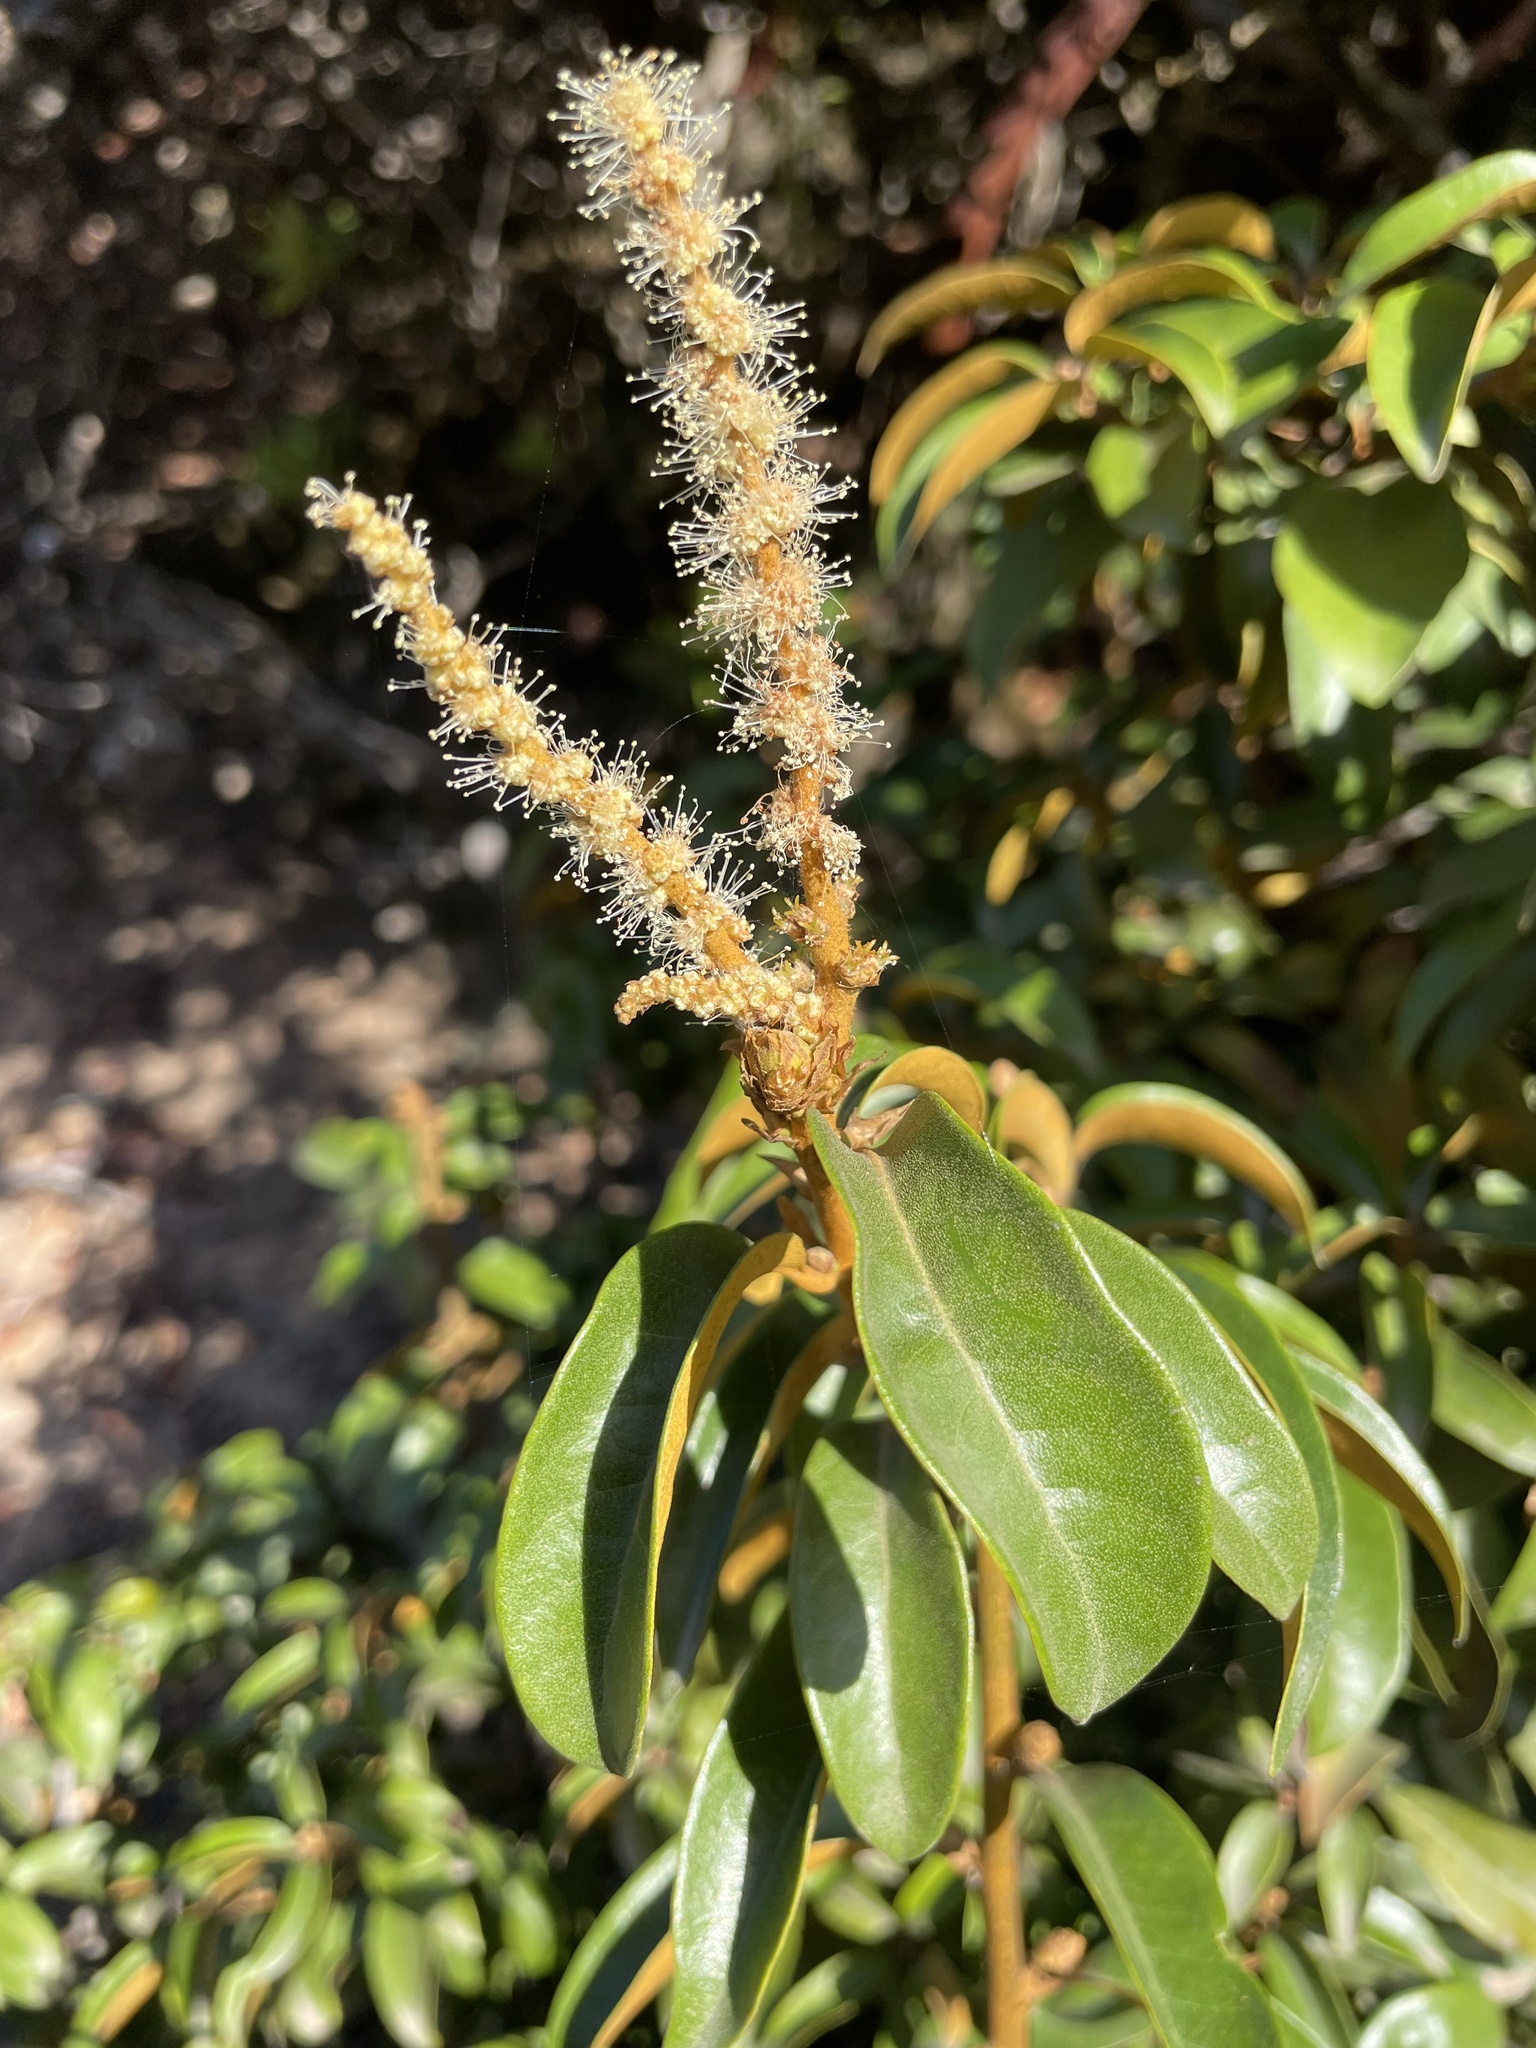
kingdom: Plantae
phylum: Tracheophyta
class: Magnoliopsida
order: Fagales
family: Fagaceae
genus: Chrysolepis
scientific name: Chrysolepis chrysophylla
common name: Giant chinquapin
